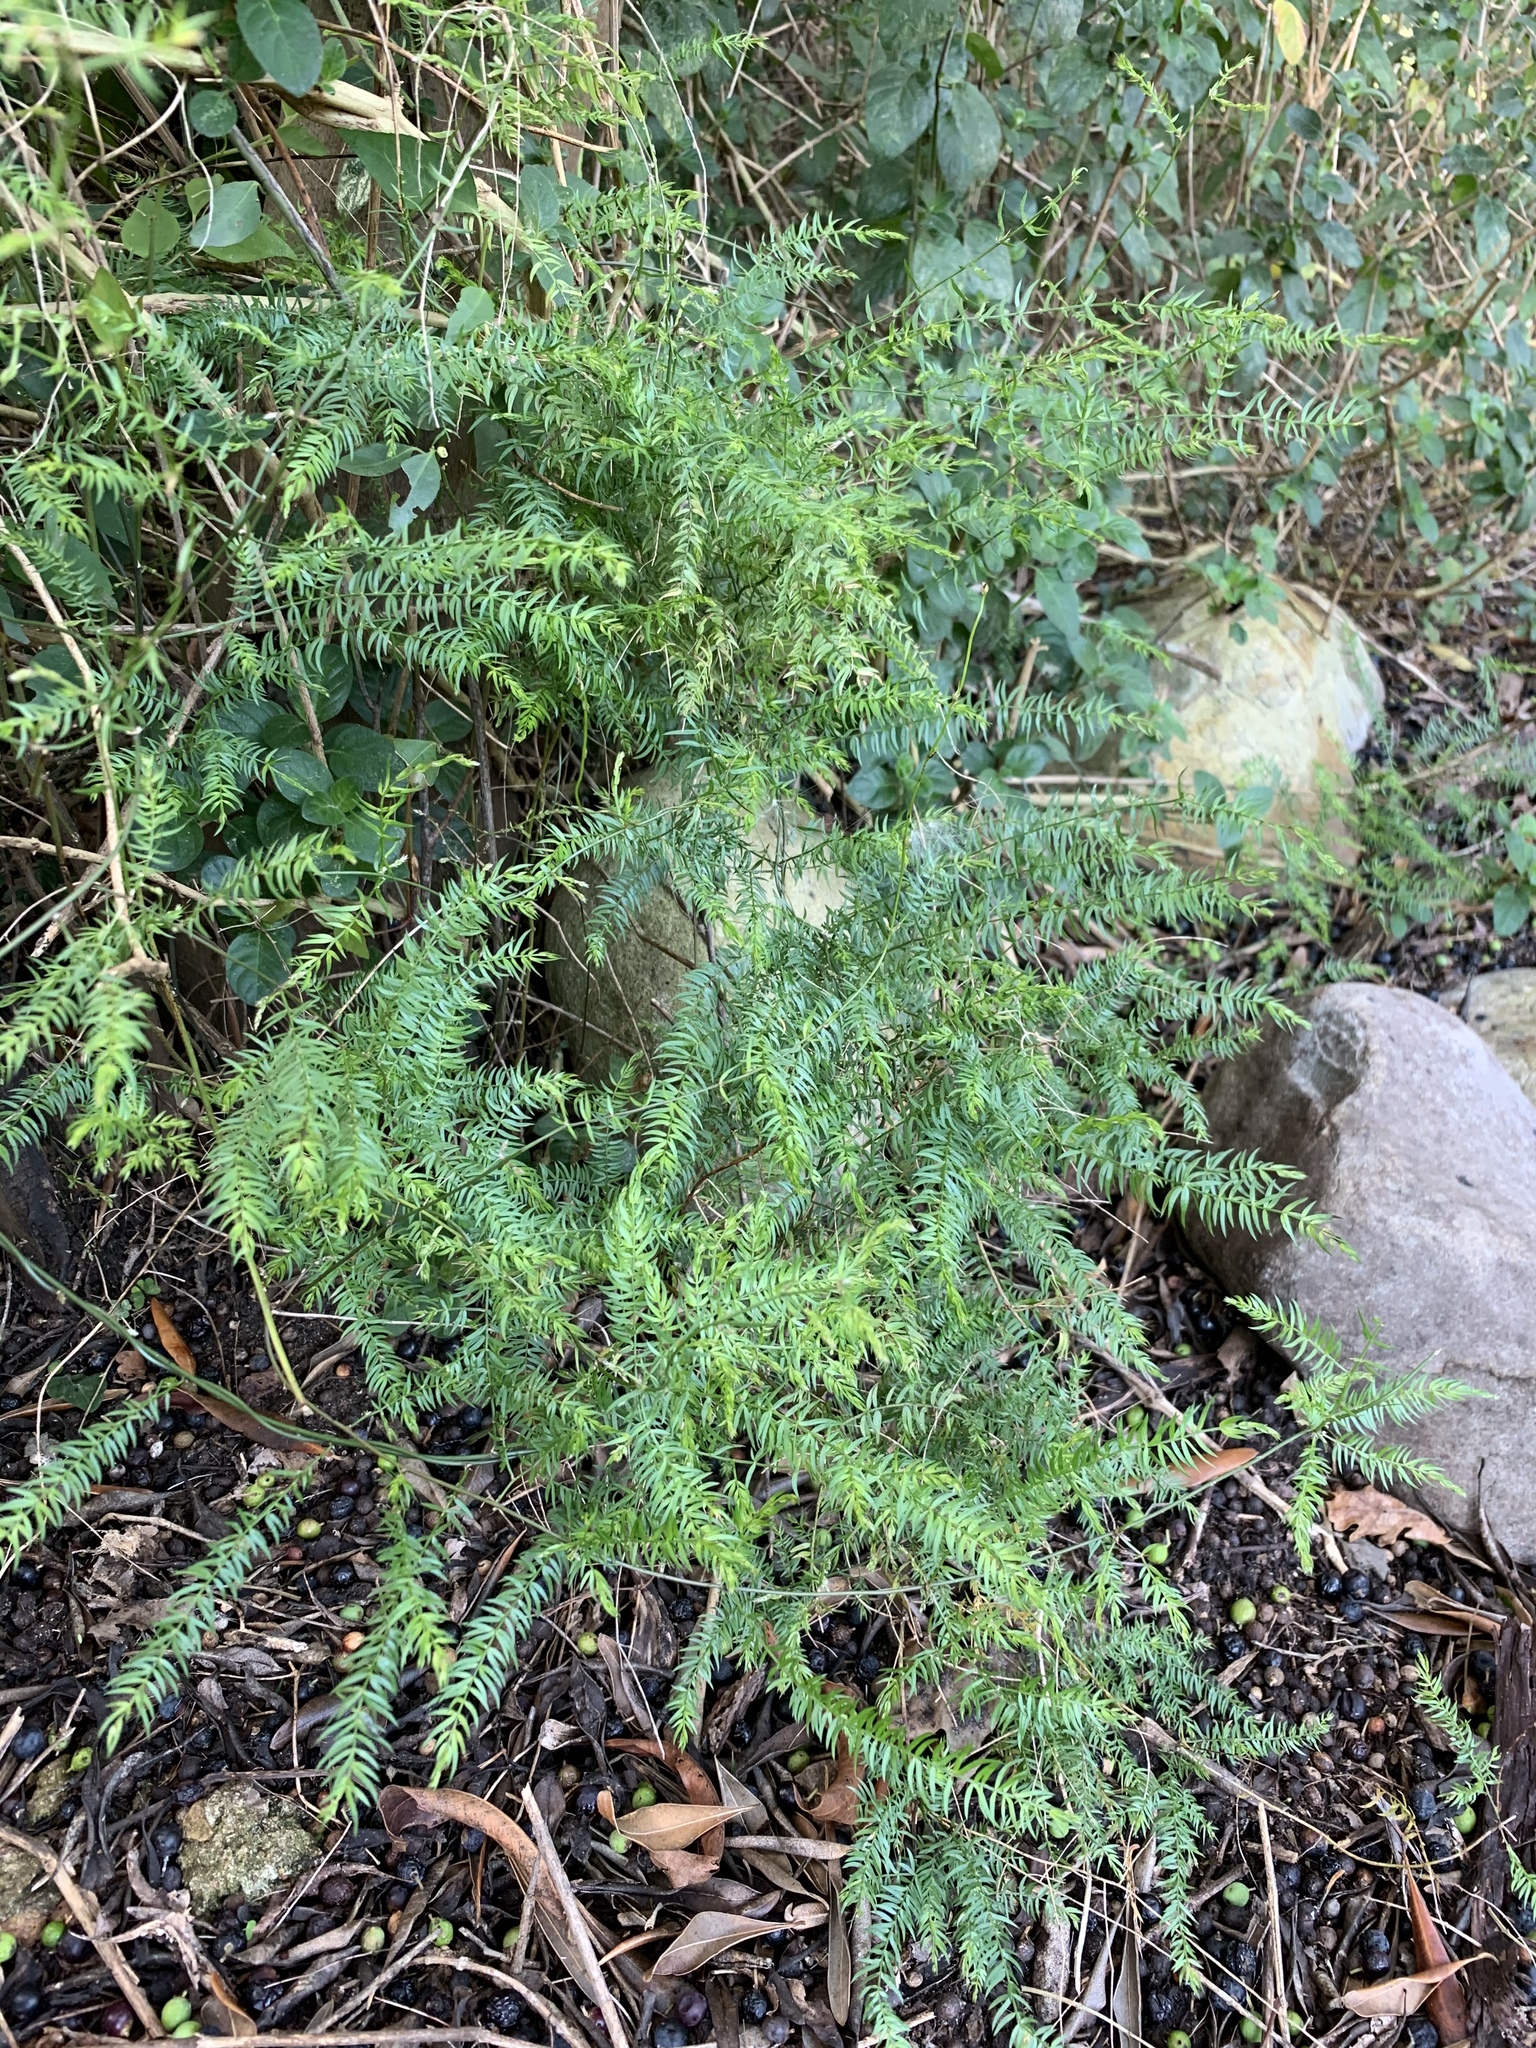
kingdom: Plantae
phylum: Tracheophyta
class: Liliopsida
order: Asparagales
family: Asparagaceae
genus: Asparagus
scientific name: Asparagus scandens
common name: Asparagus-fern
